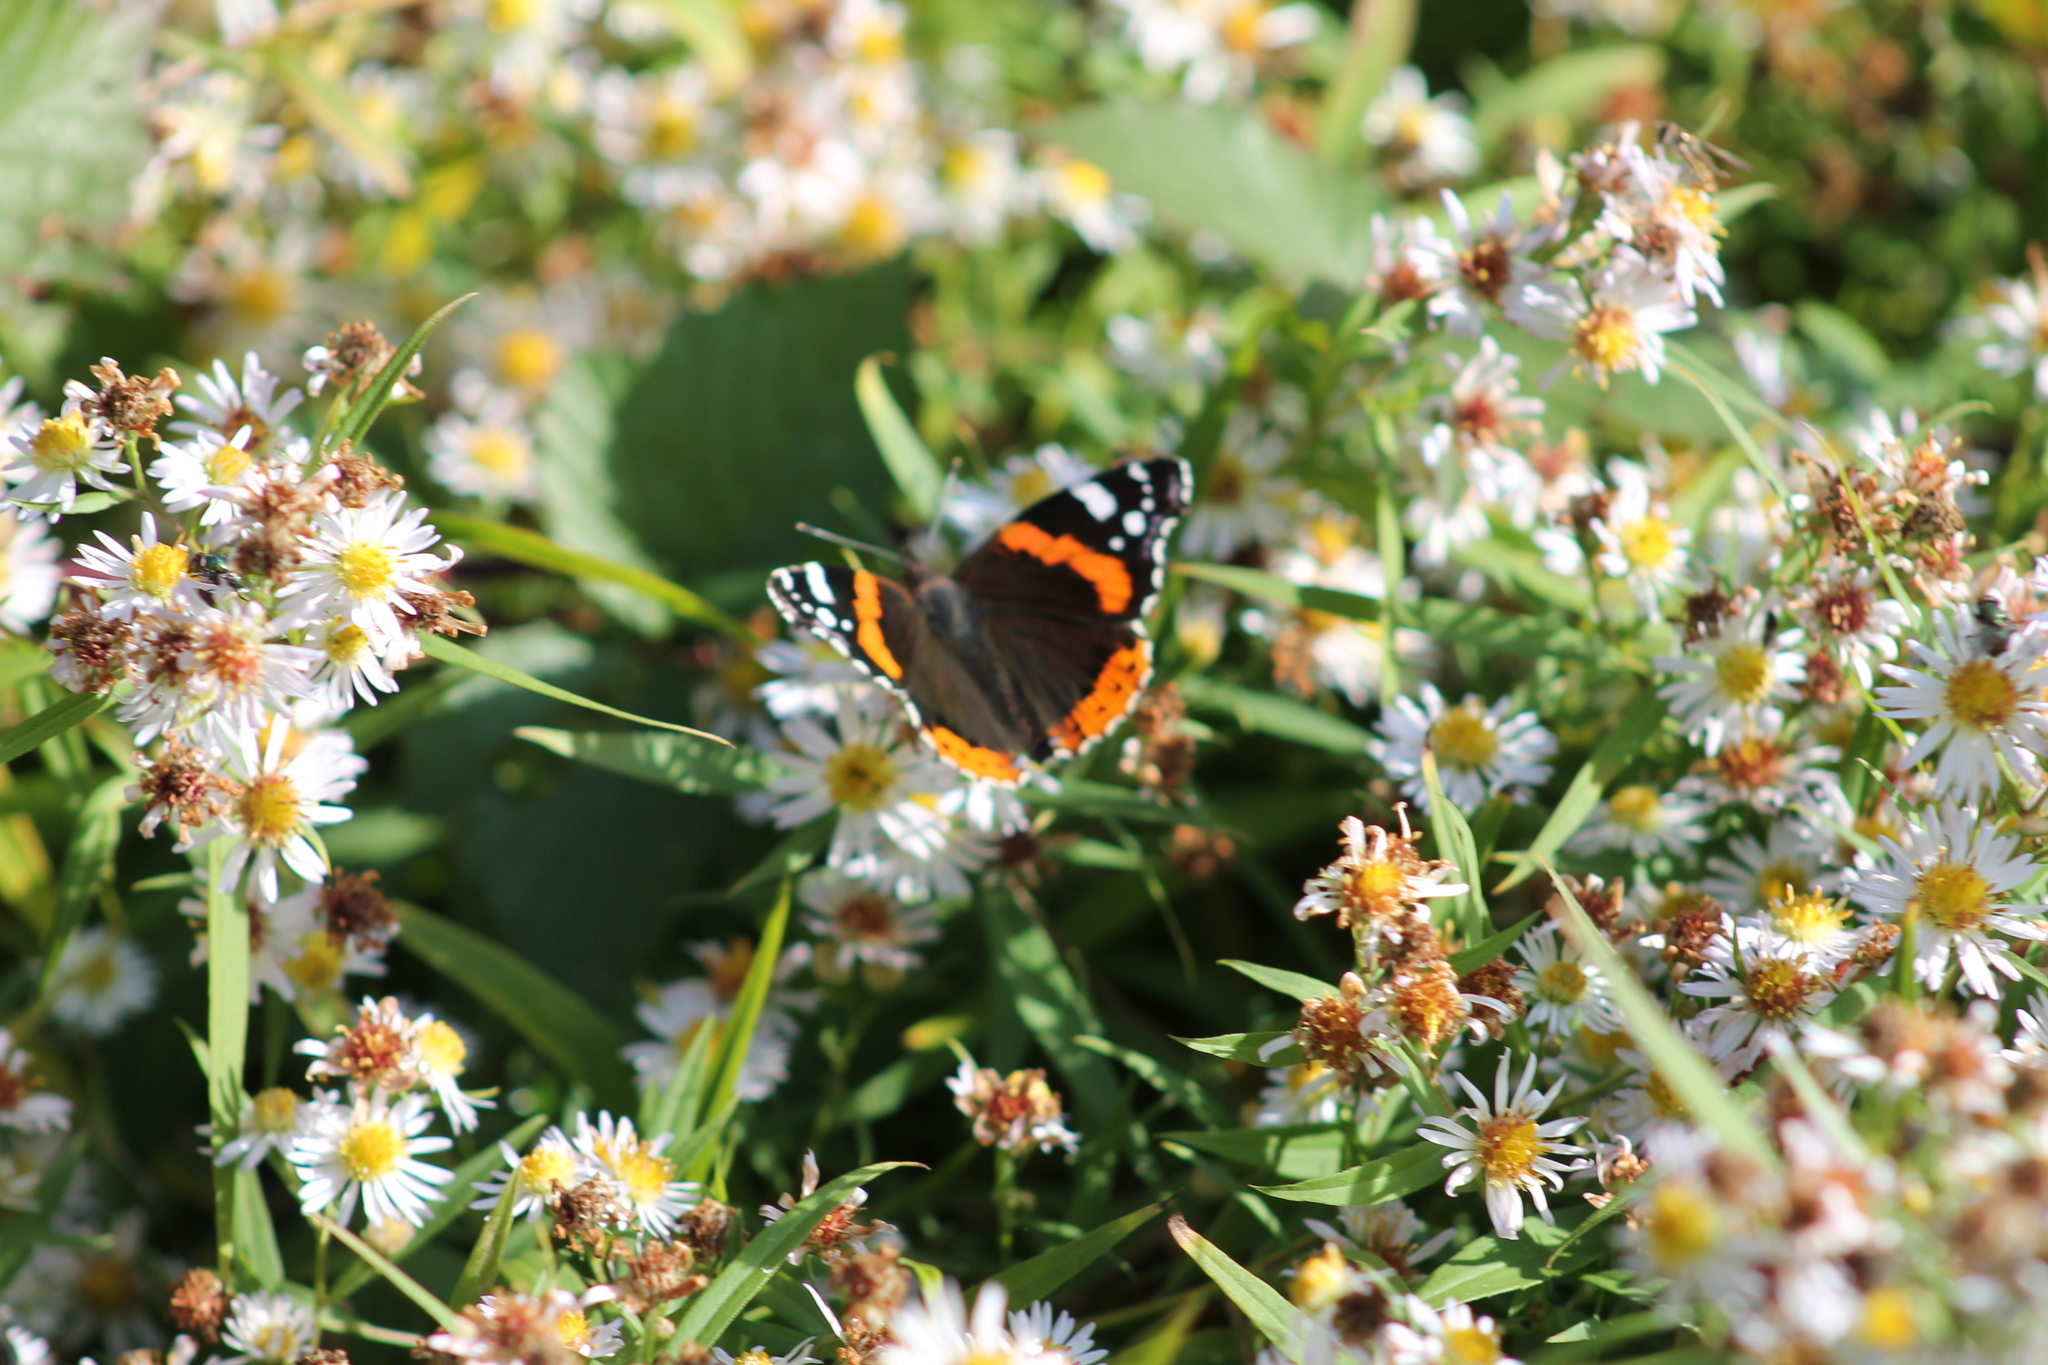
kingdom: Animalia
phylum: Arthropoda
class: Insecta
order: Lepidoptera
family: Nymphalidae
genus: Vanessa
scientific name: Vanessa atalanta
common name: Red admiral
